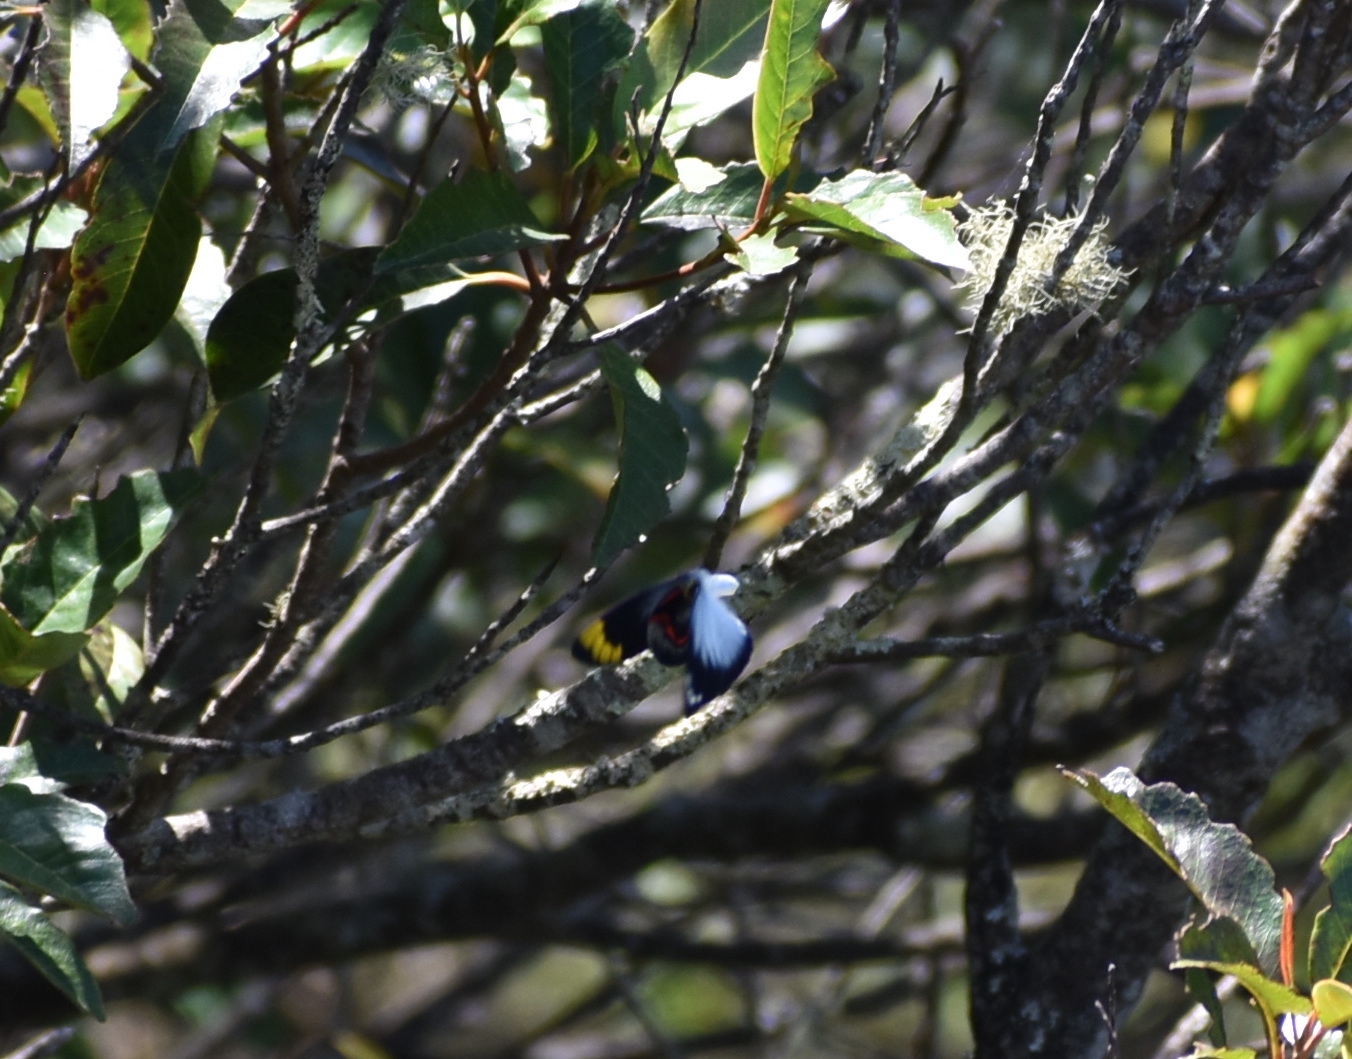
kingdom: Animalia
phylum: Arthropoda
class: Insecta
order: Lepidoptera
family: Pieridae
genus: Delias
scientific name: Delias nigrina
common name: Black jezebel
